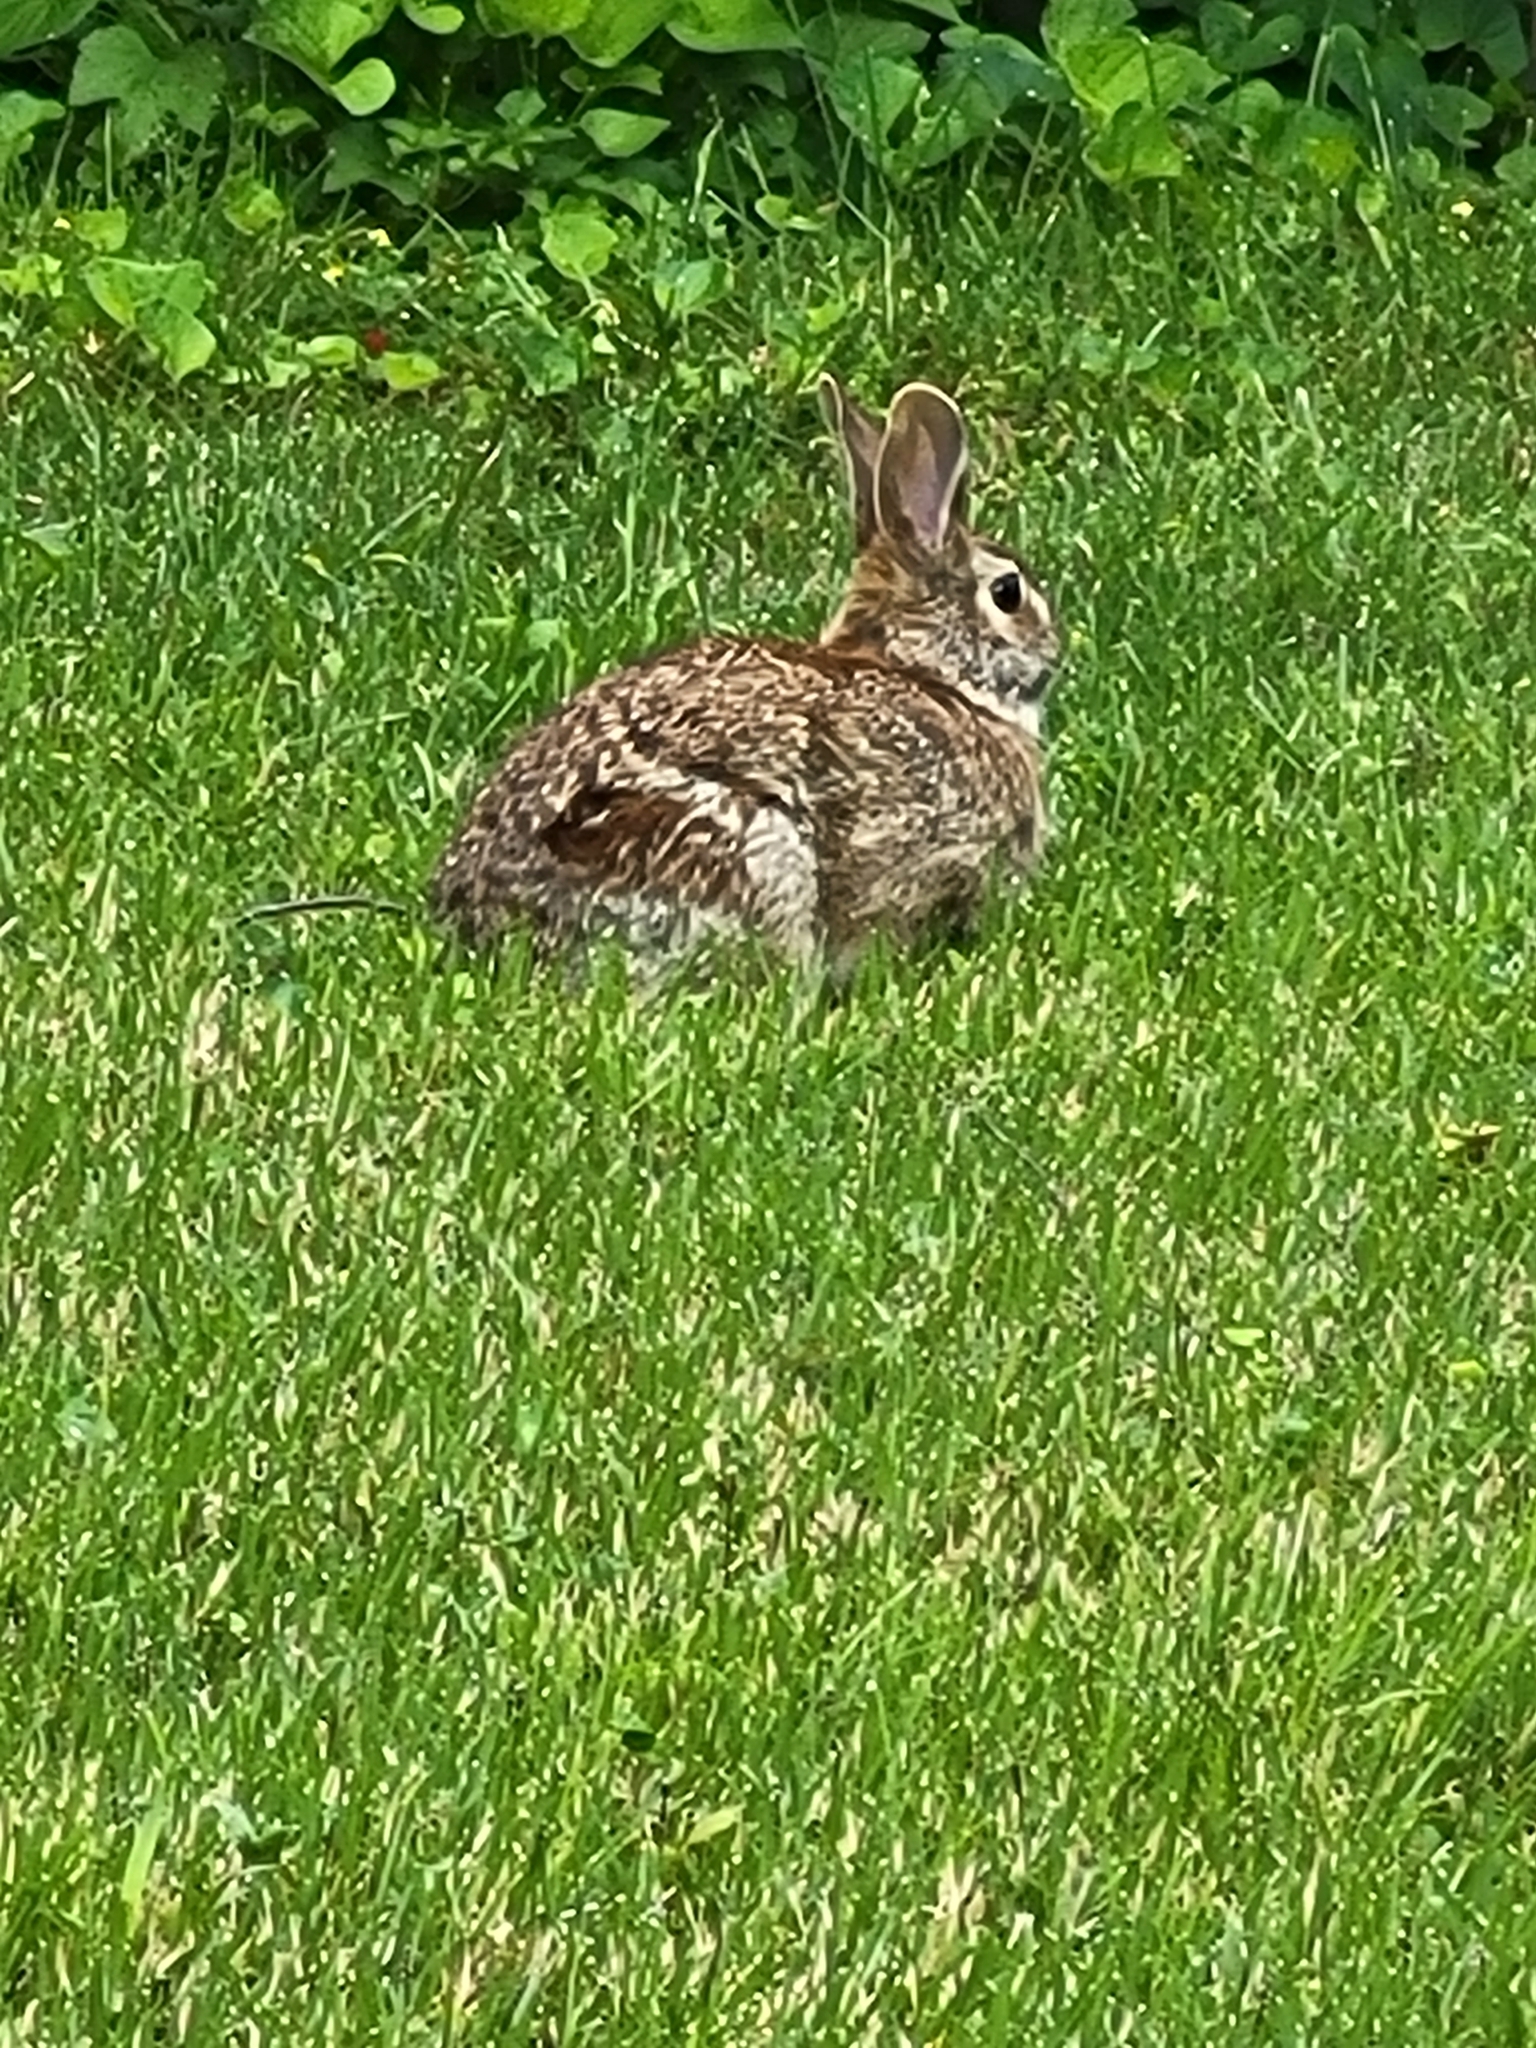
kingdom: Animalia
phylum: Chordata
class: Mammalia
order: Lagomorpha
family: Leporidae
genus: Sylvilagus
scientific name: Sylvilagus floridanus
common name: Eastern cottontail
